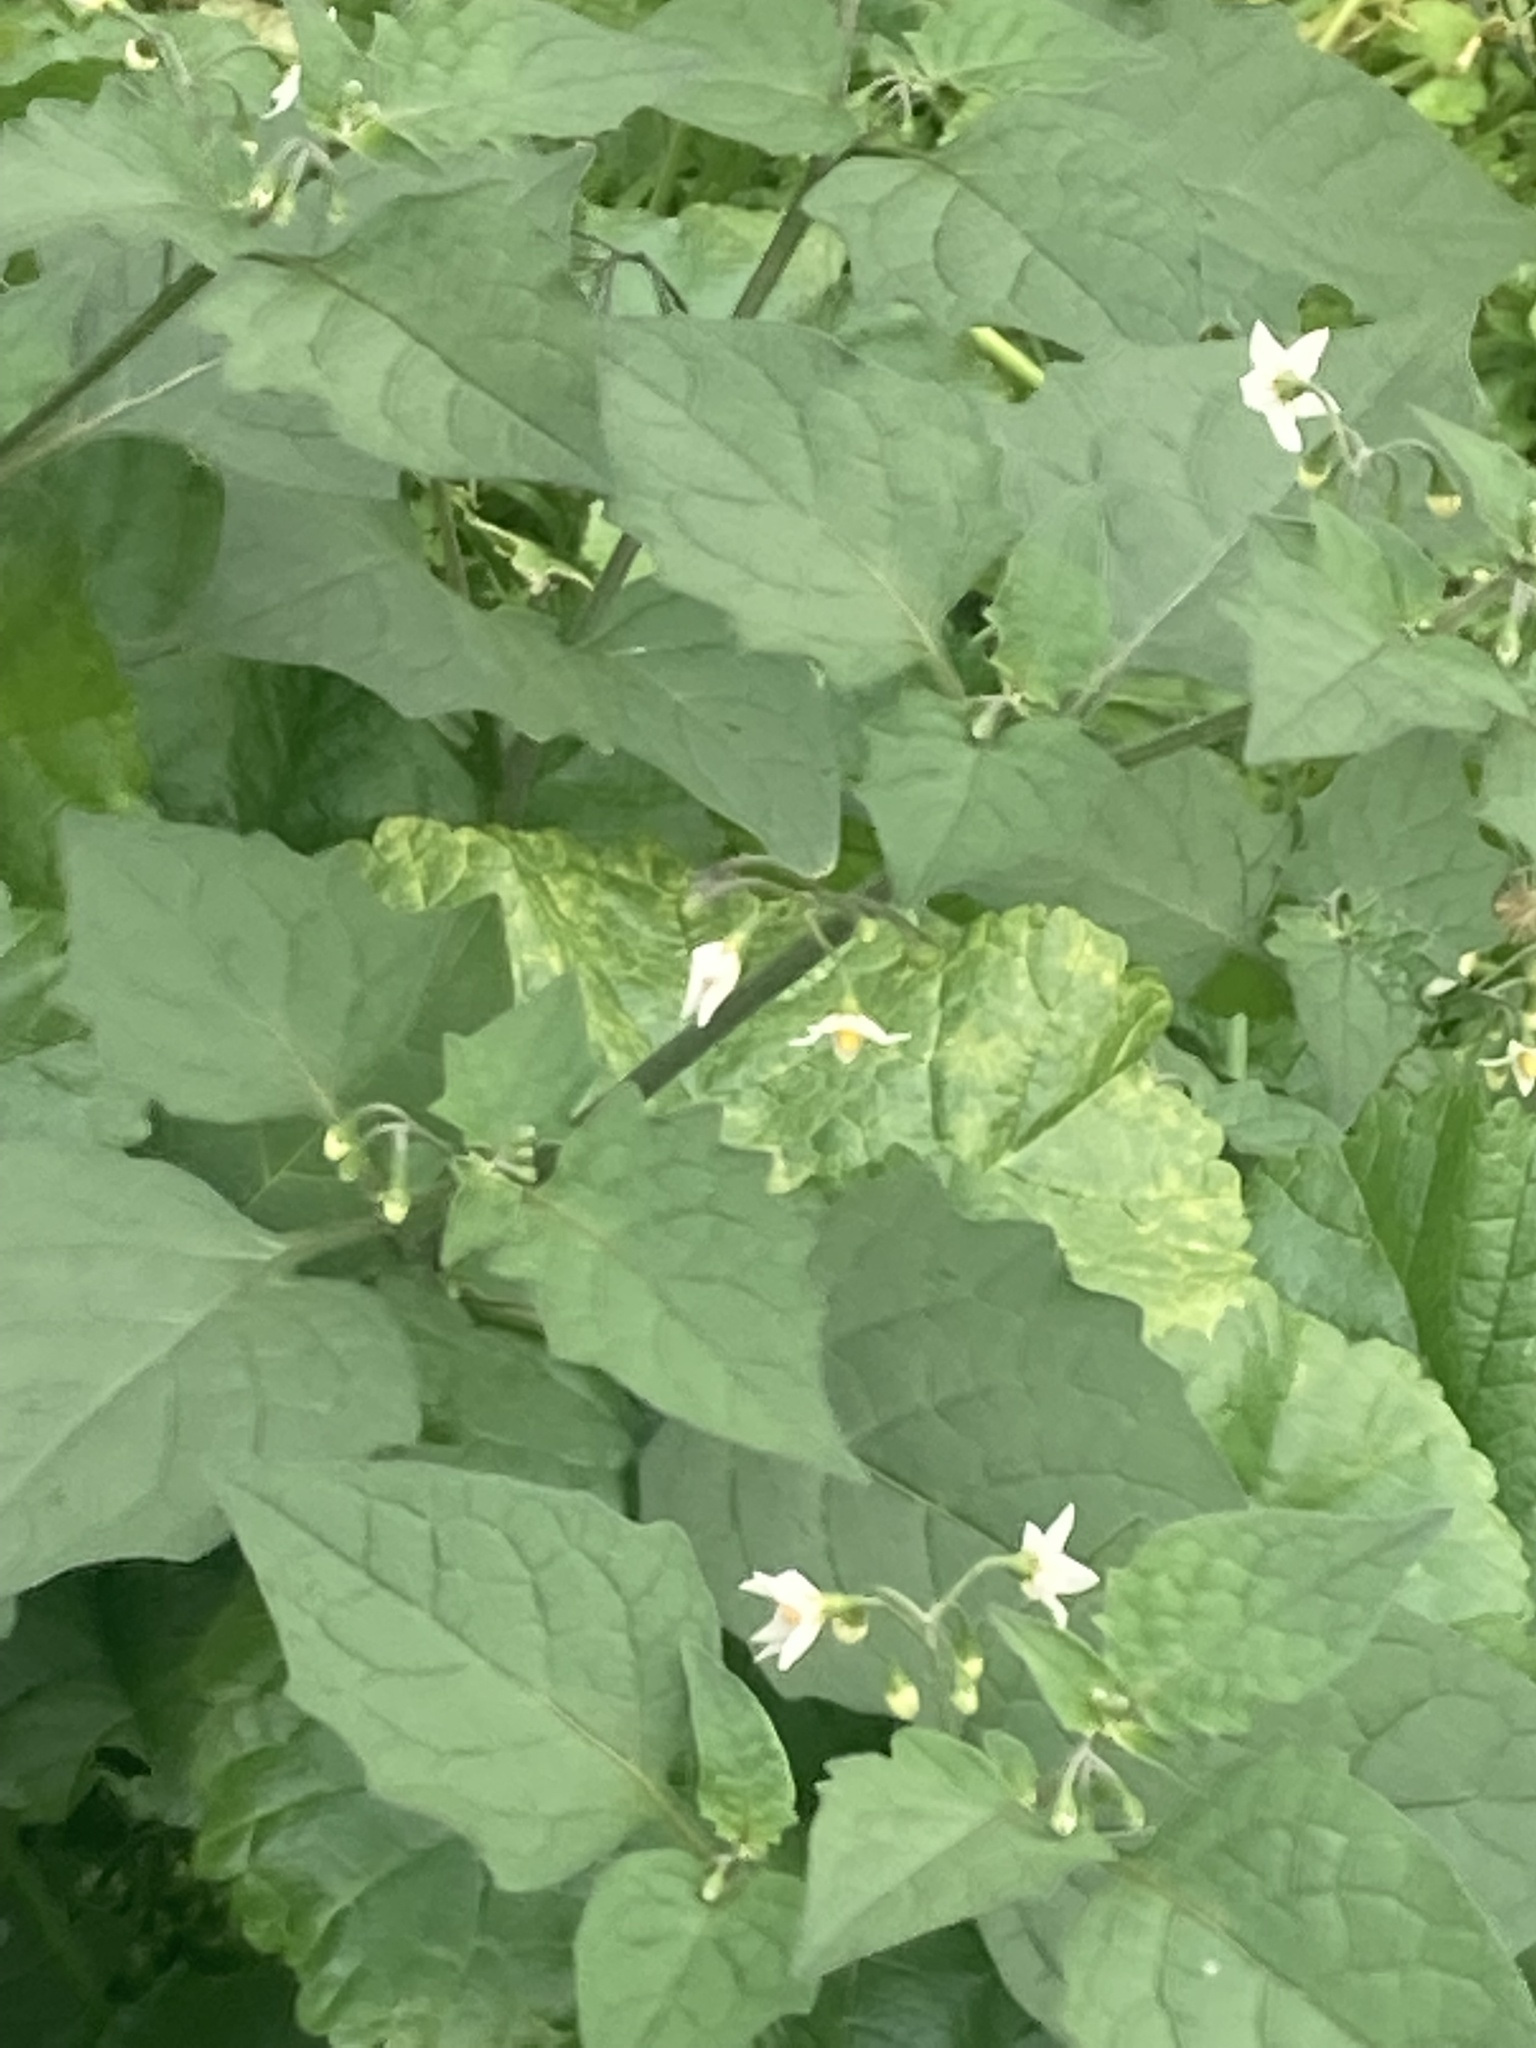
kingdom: Plantae
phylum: Tracheophyta
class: Magnoliopsida
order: Solanales
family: Solanaceae
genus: Solanum
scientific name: Solanum nigrum
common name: Black nightshade
